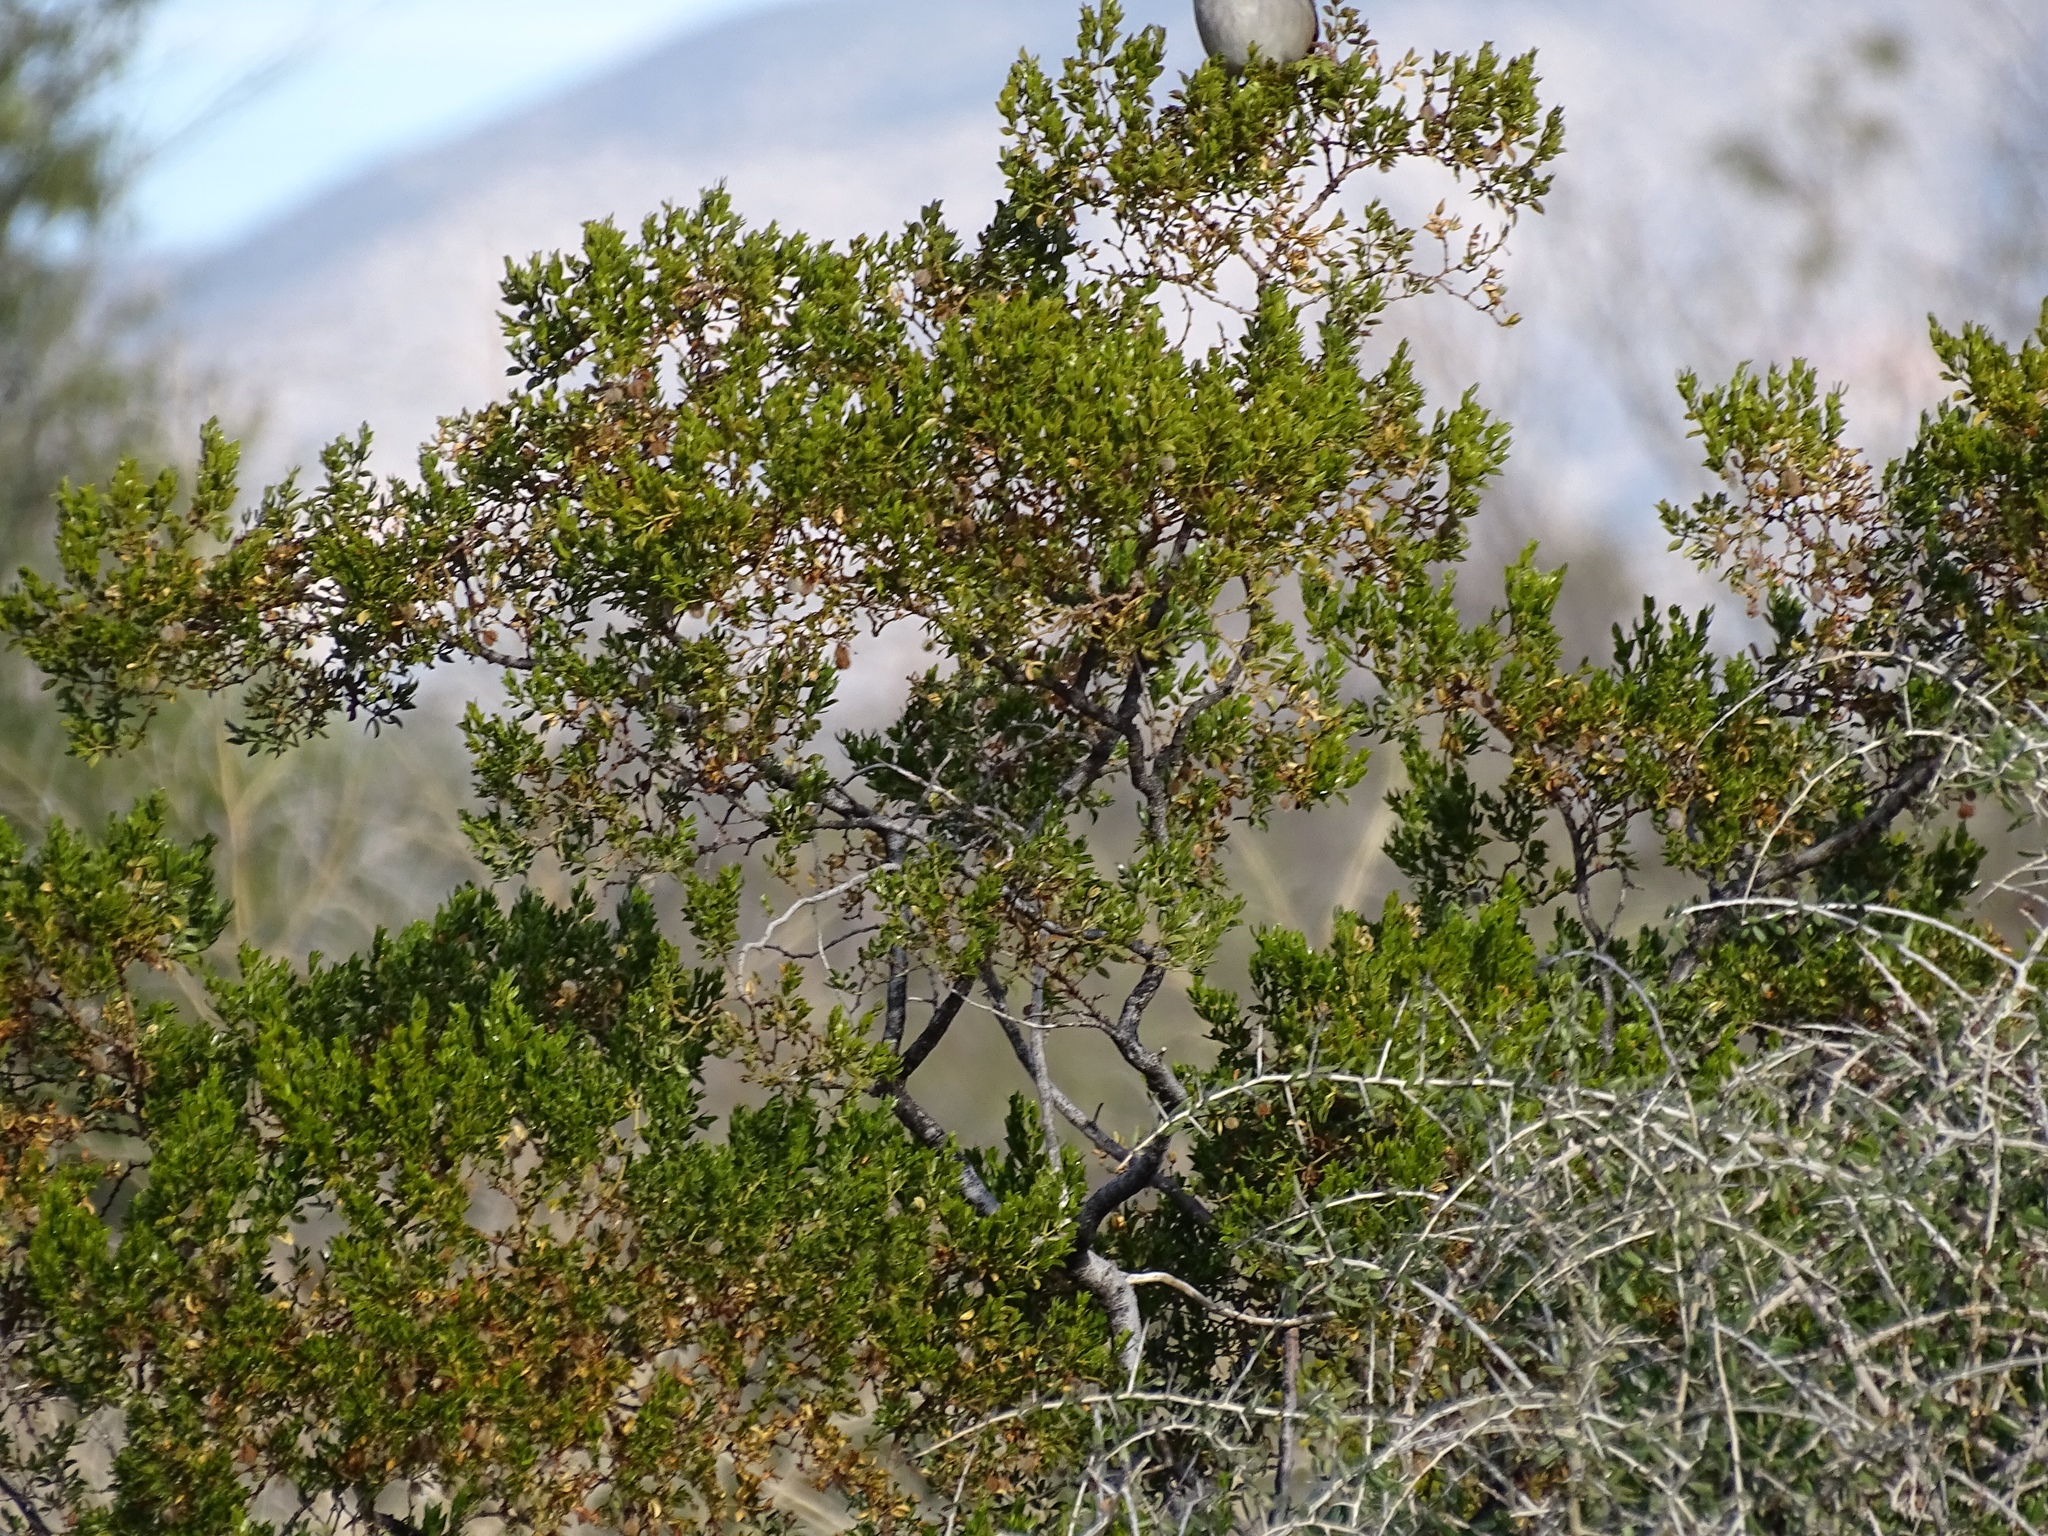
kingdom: Plantae
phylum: Tracheophyta
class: Magnoliopsida
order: Zygophyllales
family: Zygophyllaceae
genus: Larrea
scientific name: Larrea tridentata
